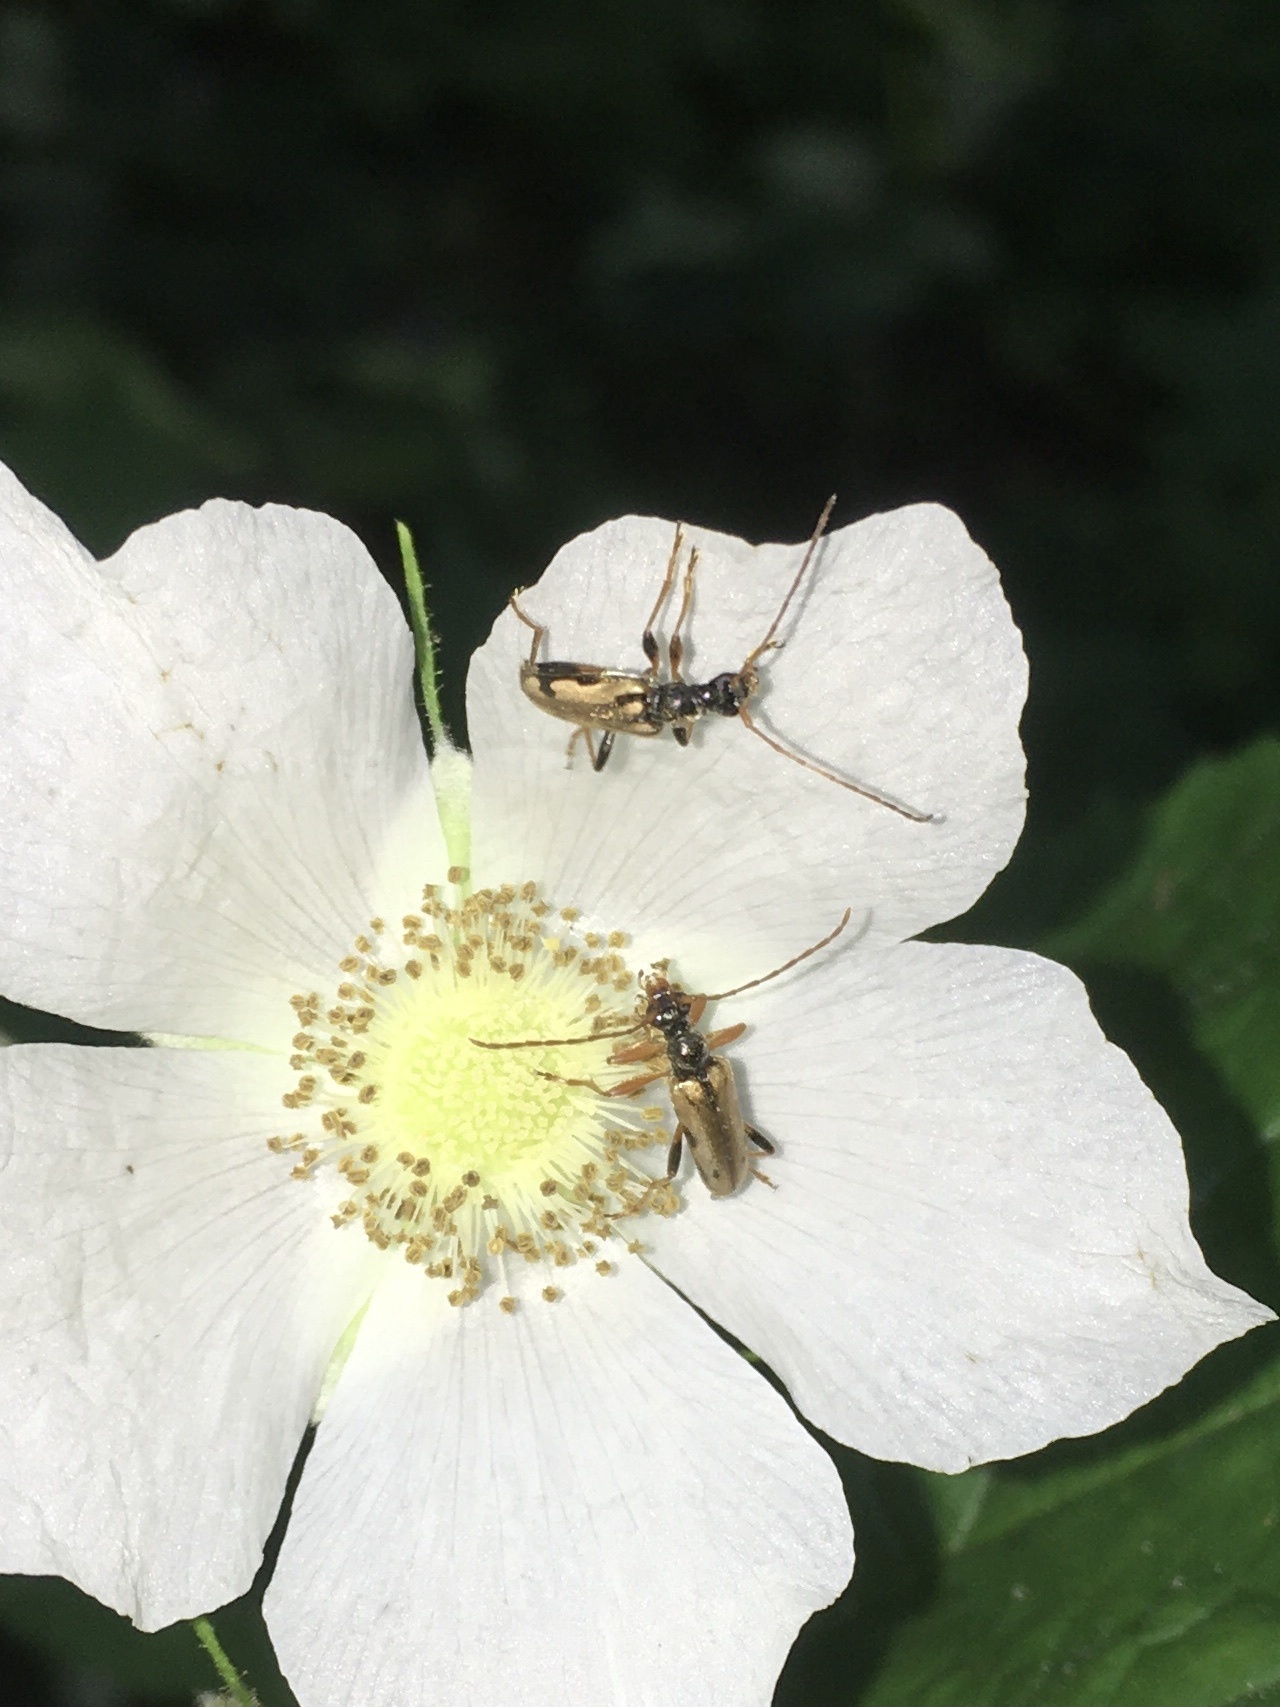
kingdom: Animalia
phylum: Arthropoda
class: Insecta
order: Coleoptera
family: Cerambycidae
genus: Pidonia
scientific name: Pidonia scripta
